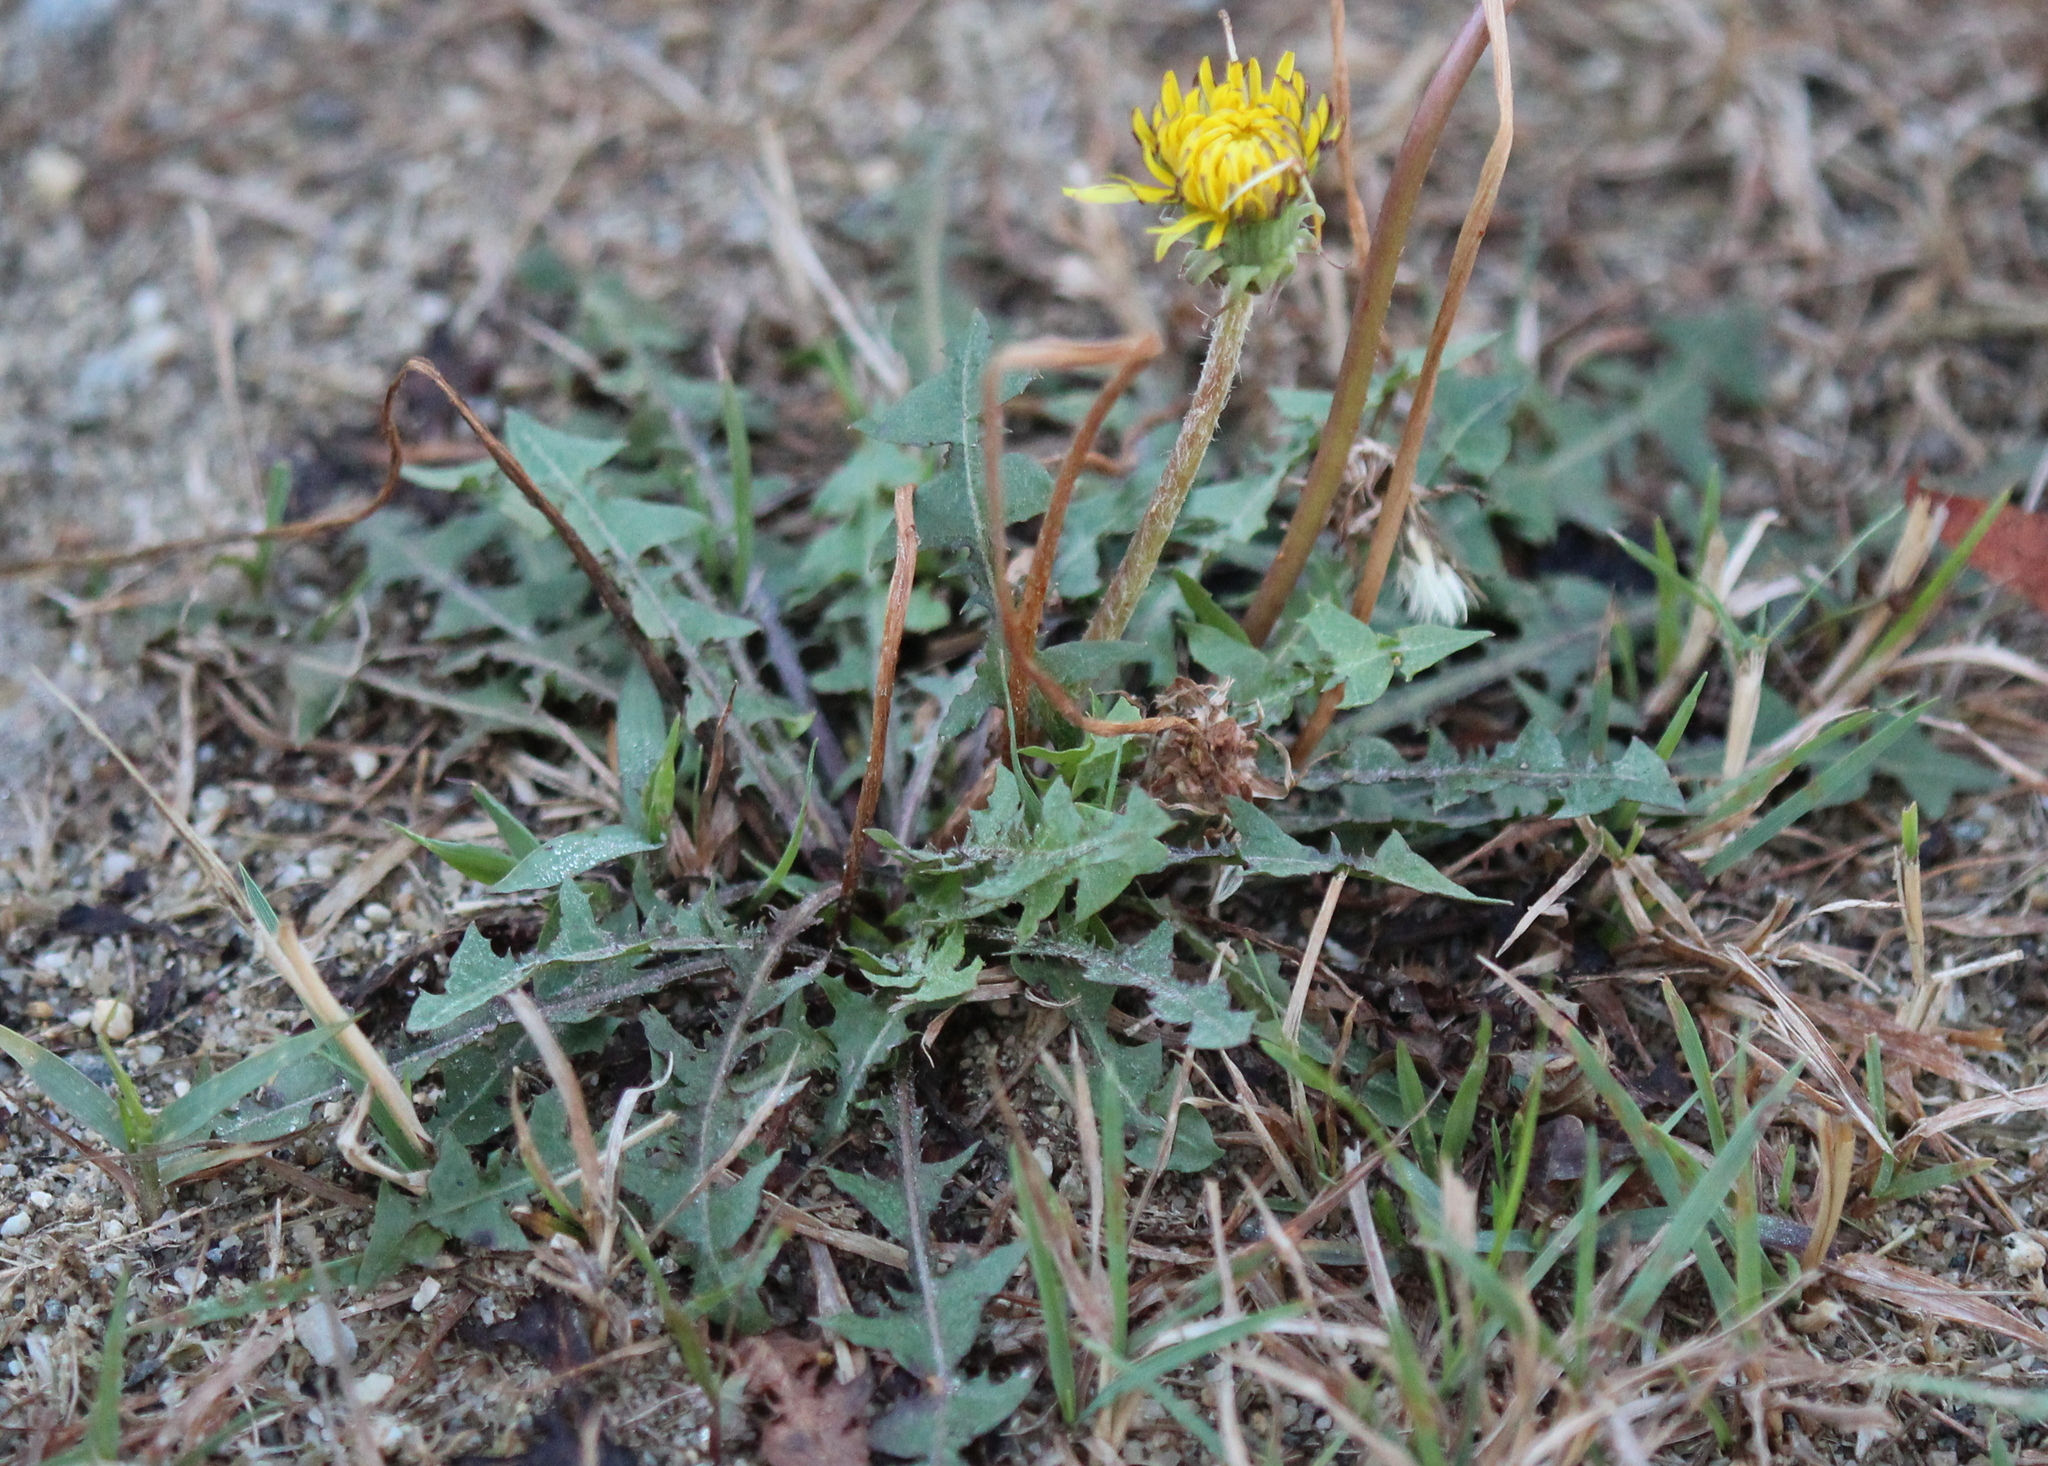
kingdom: Plantae
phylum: Tracheophyta
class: Magnoliopsida
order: Asterales
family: Asteraceae
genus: Taraxacum
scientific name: Taraxacum
